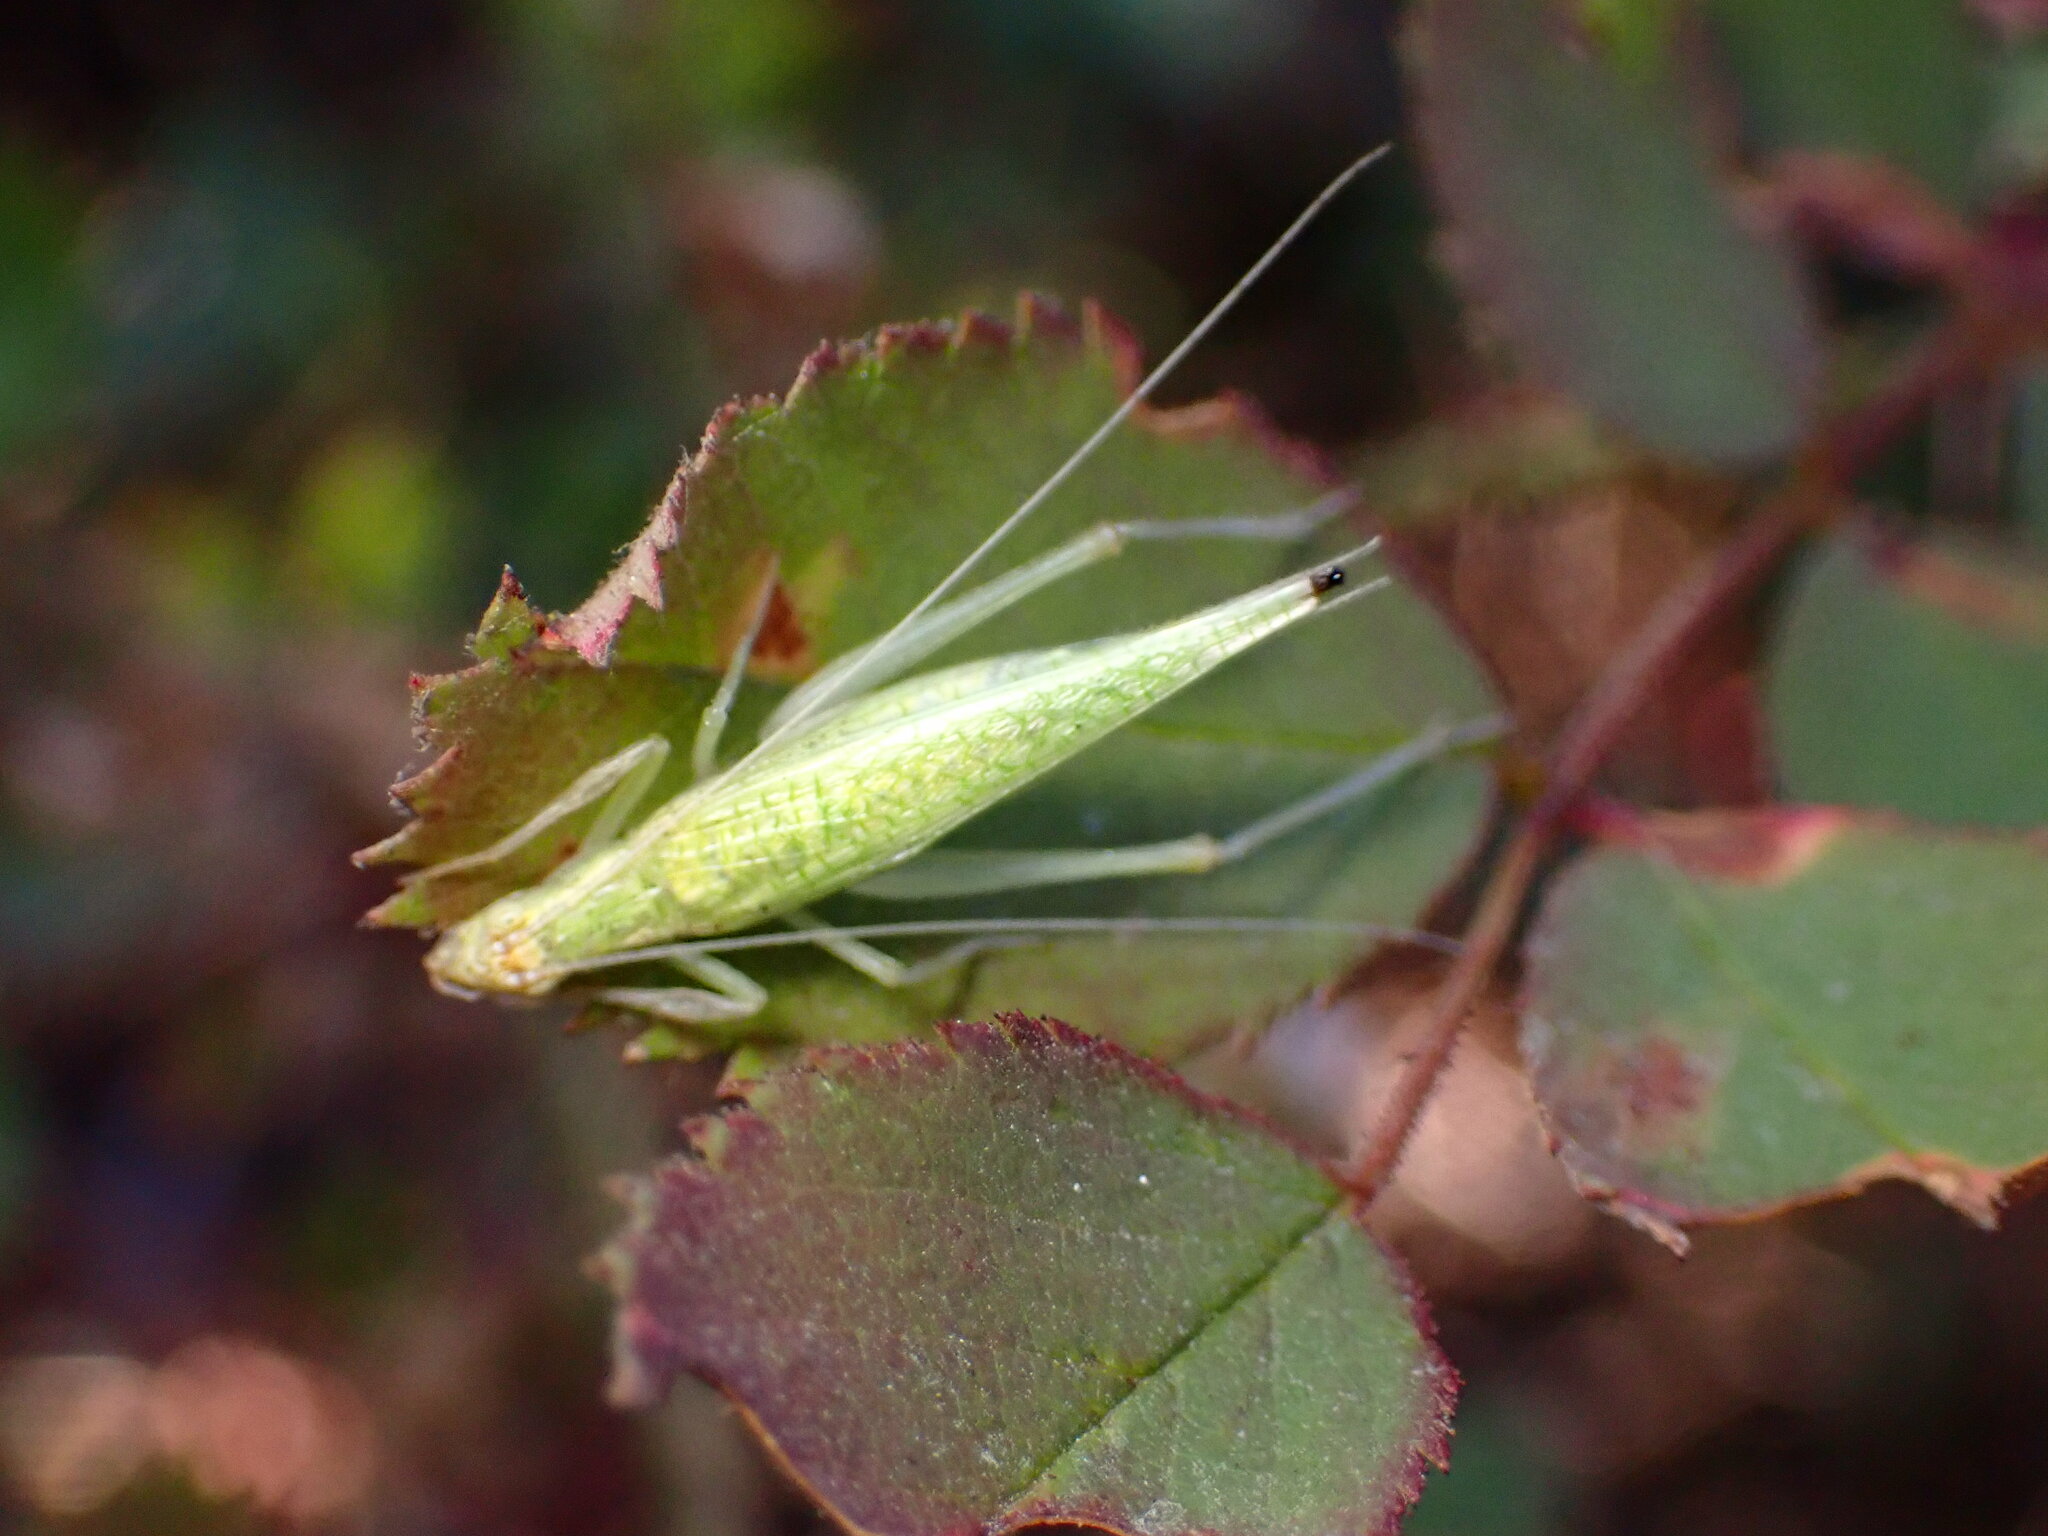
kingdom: Animalia
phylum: Arthropoda
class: Insecta
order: Orthoptera
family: Gryllidae
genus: Oecanthus
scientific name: Oecanthus rileyi
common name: Riley's tree cricket
